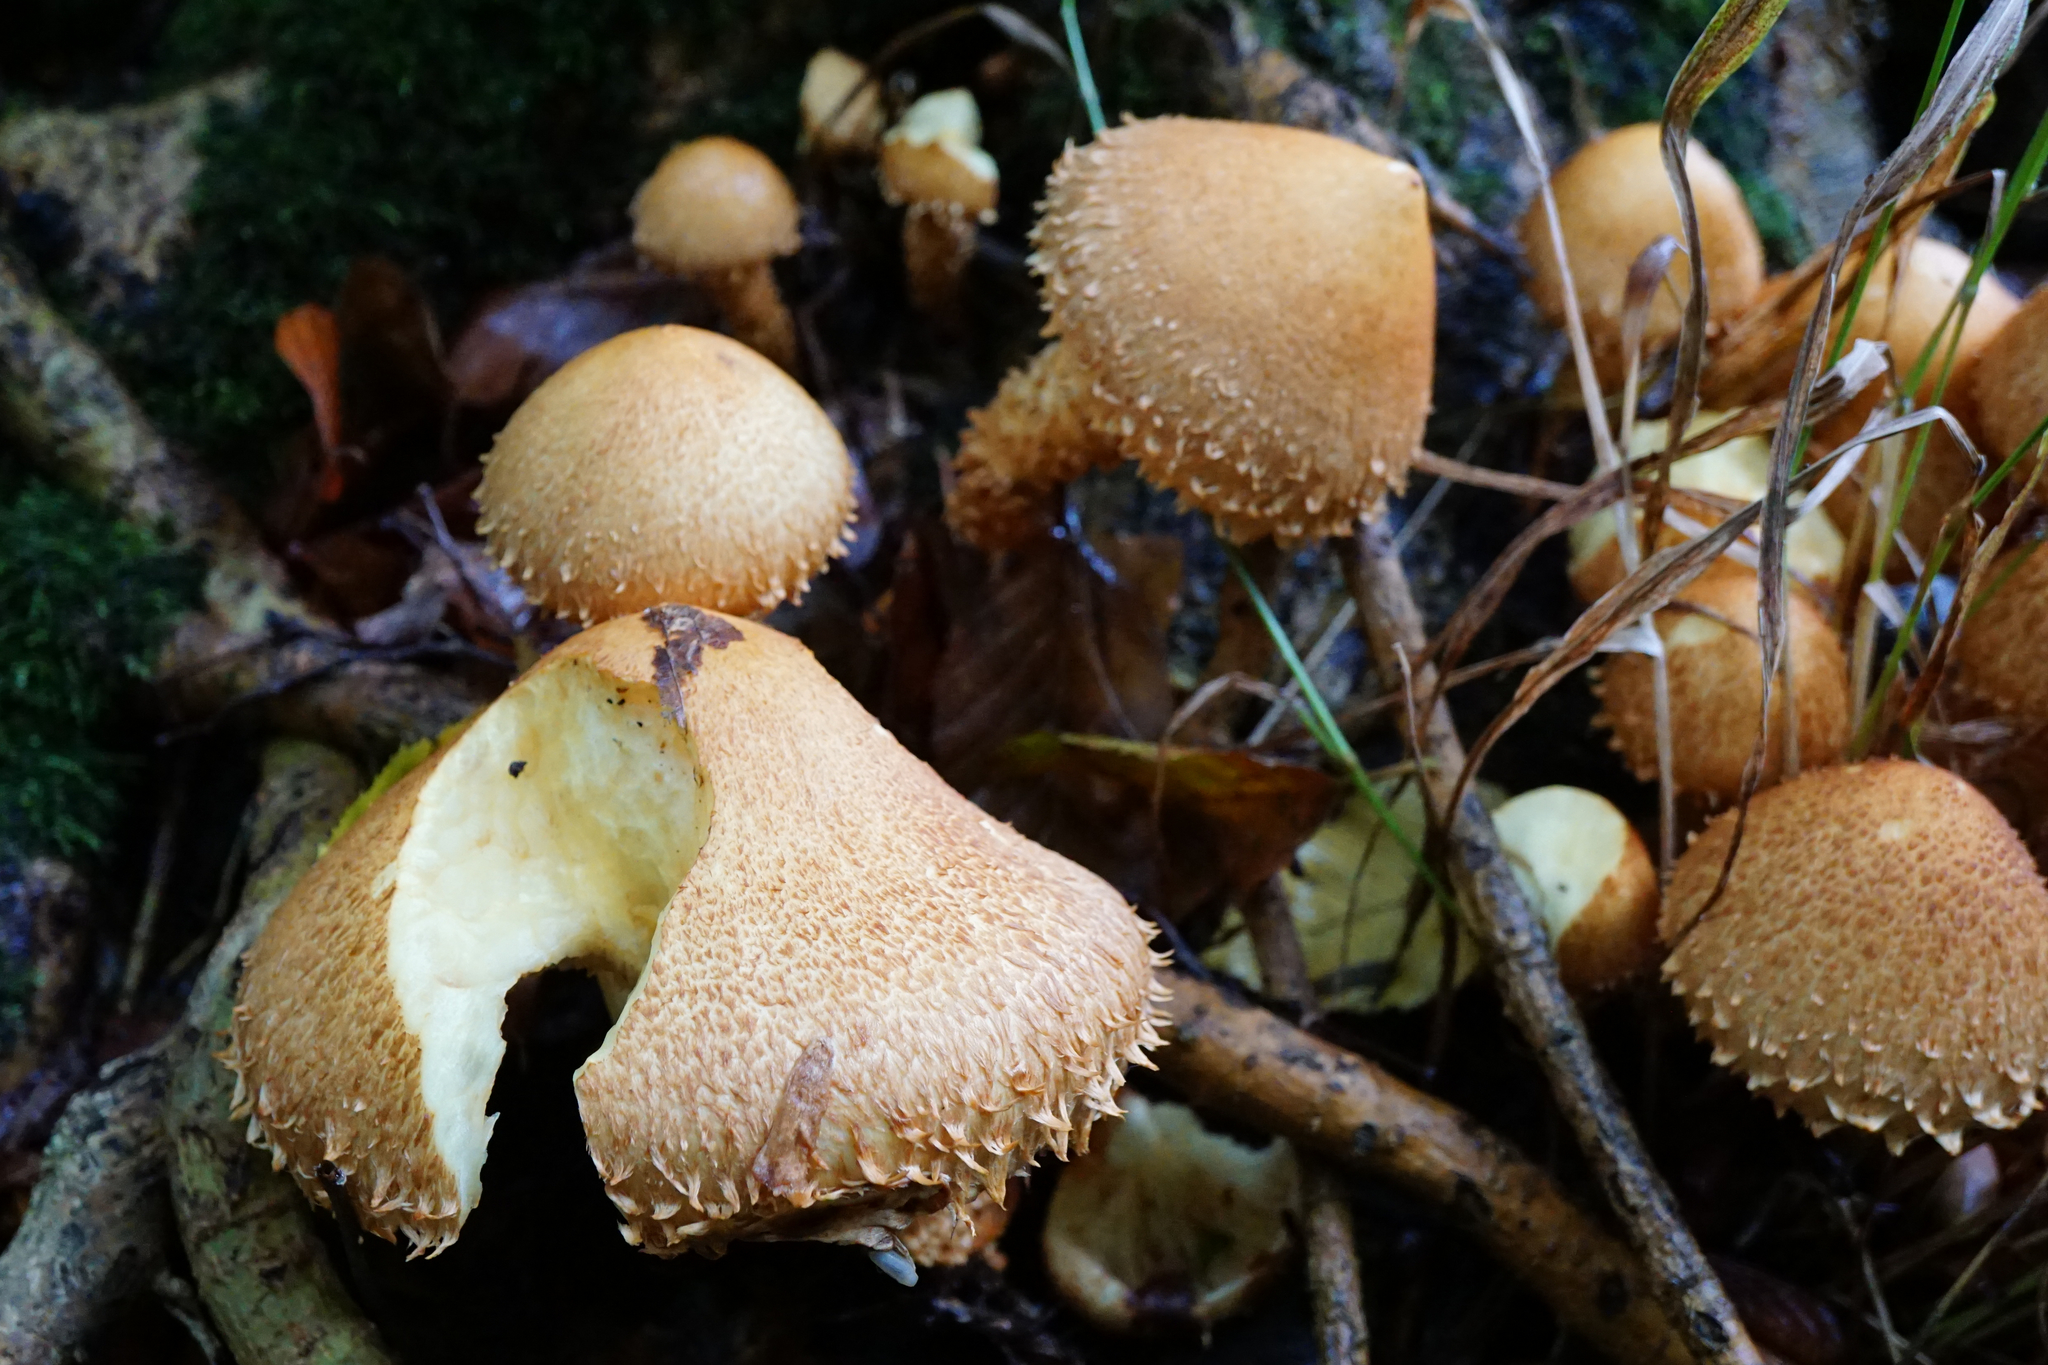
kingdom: Fungi
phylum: Basidiomycota
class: Agaricomycetes
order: Agaricales
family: Cortinariaceae
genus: Cortinarius
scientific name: Cortinarius humicola
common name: Golden webcap
